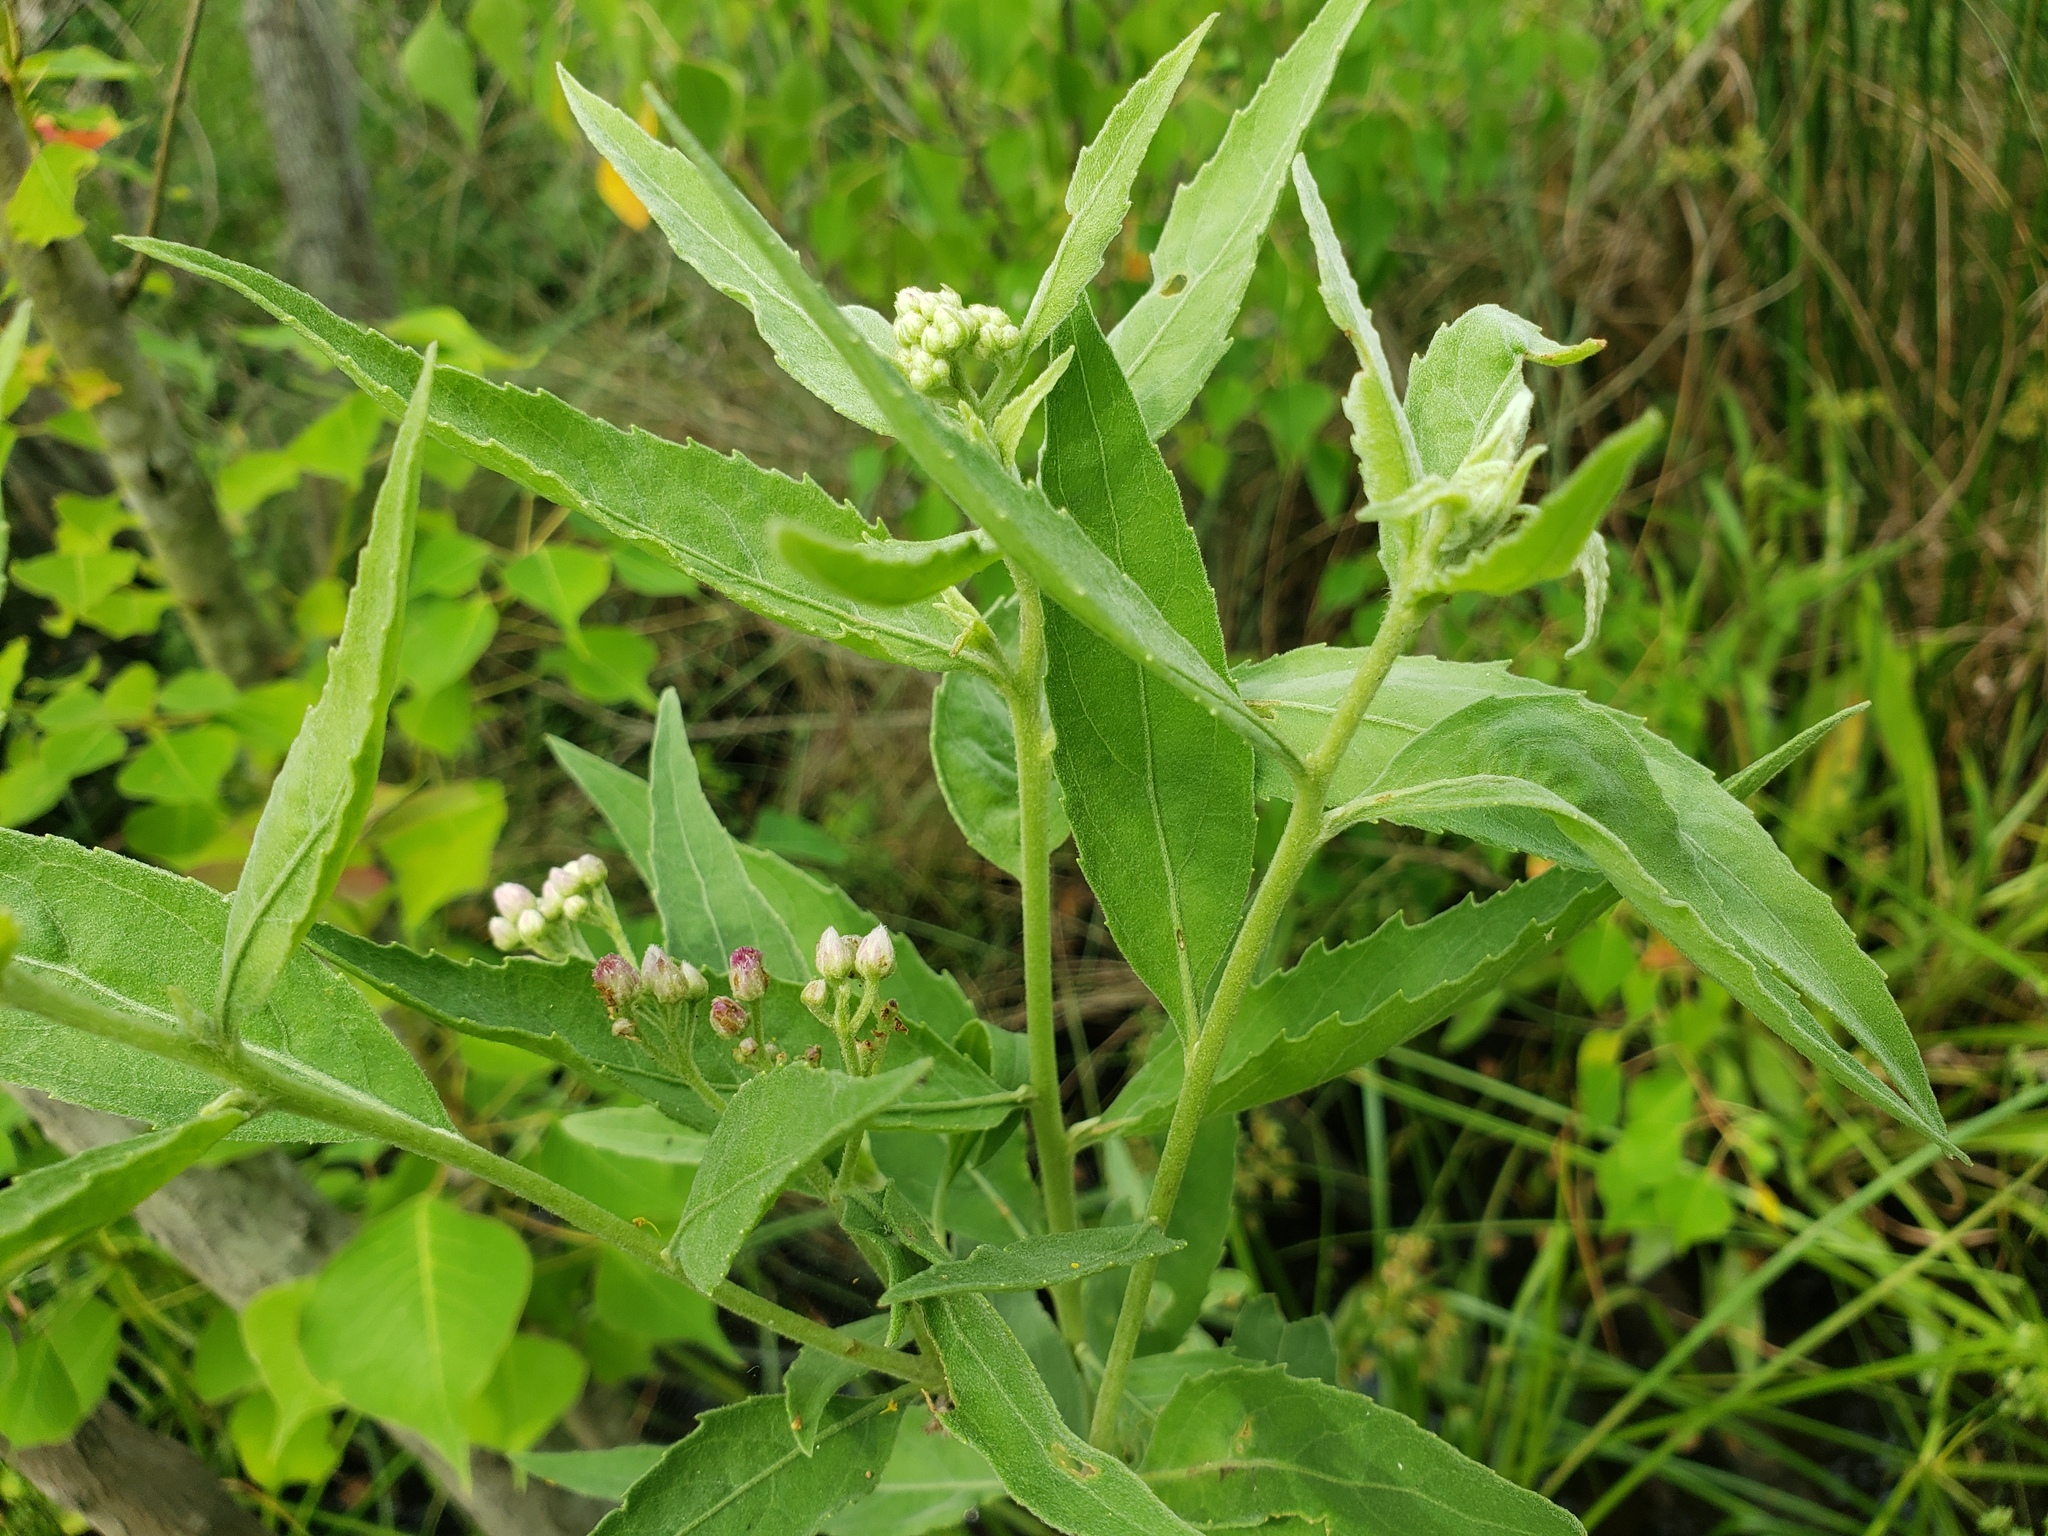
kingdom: Plantae
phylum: Tracheophyta
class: Magnoliopsida
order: Asterales
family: Asteraceae
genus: Pluchea
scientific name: Pluchea odorata
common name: Saltmarsh fleabane
